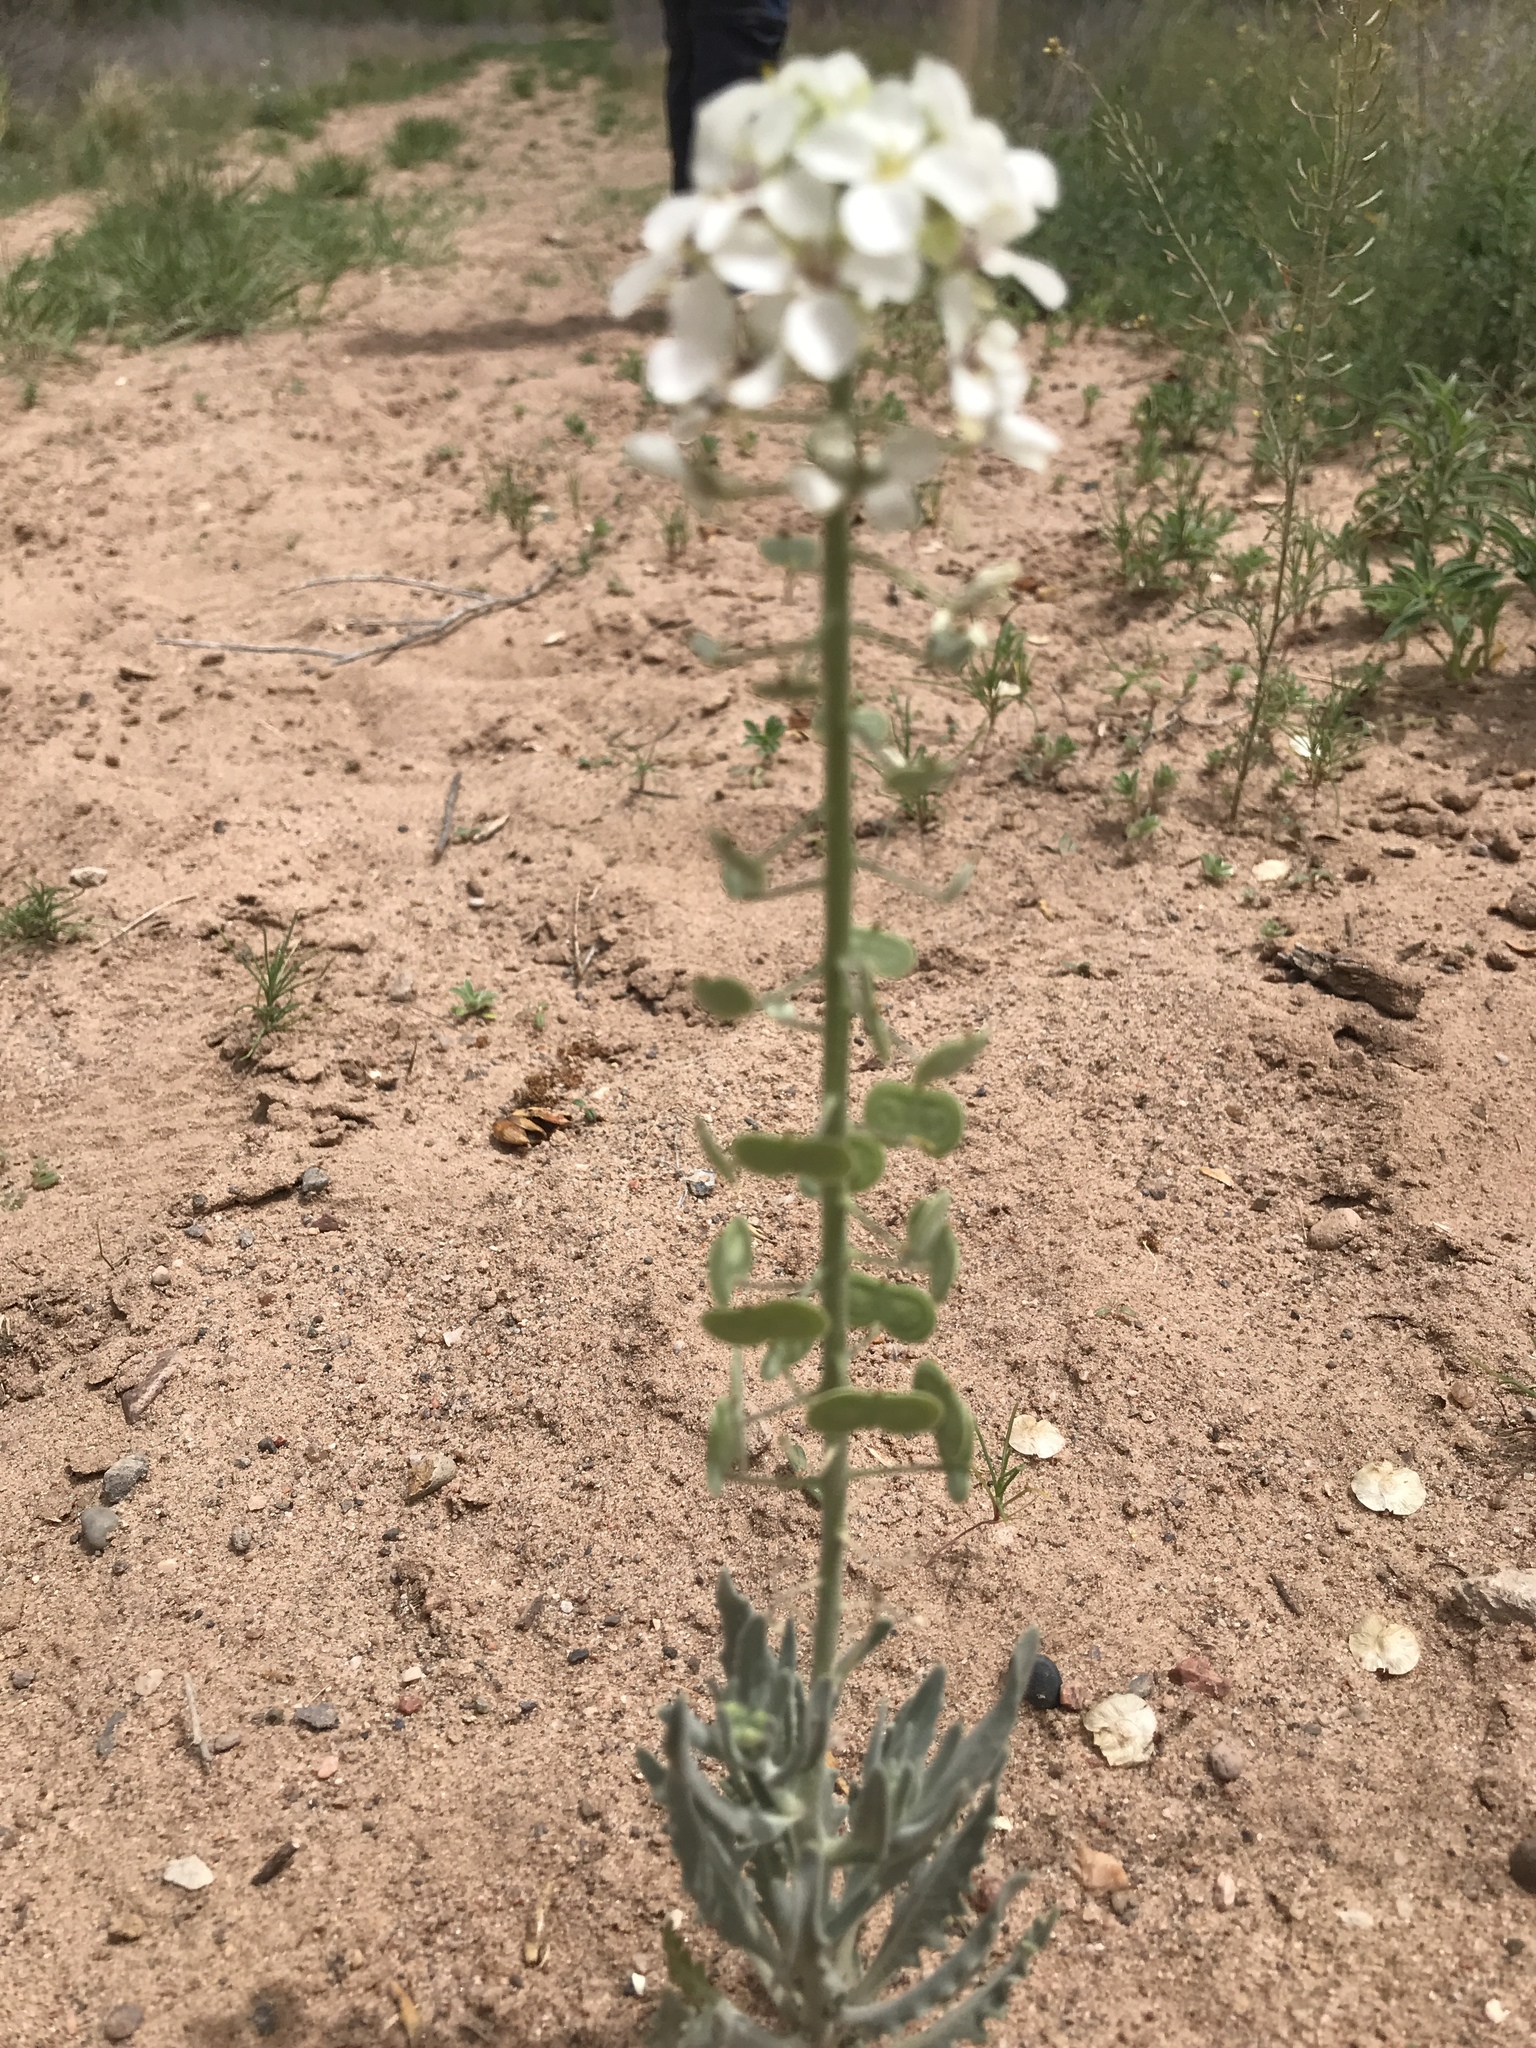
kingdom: Plantae
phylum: Tracheophyta
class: Magnoliopsida
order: Brassicales
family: Brassicaceae
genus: Dimorphocarpa
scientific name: Dimorphocarpa wislizenii
